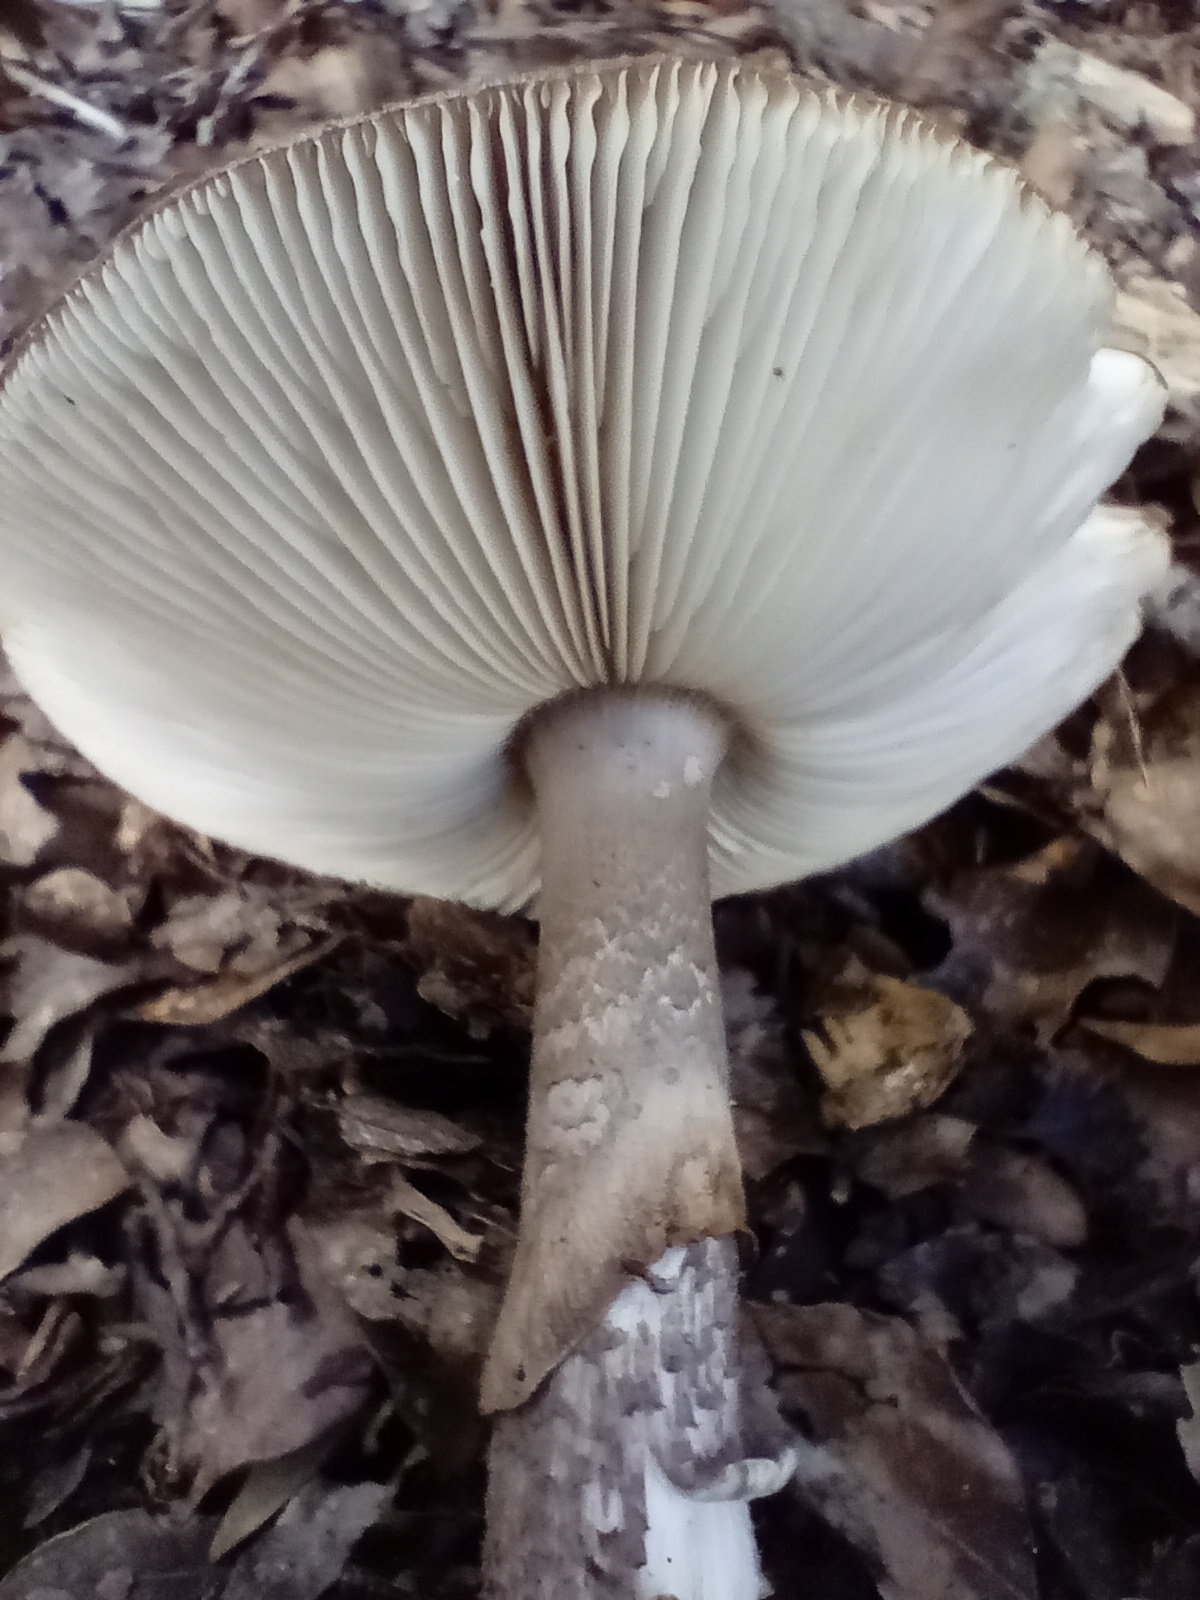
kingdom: Fungi
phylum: Basidiomycota
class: Agaricomycetes
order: Agaricales
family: Amanitaceae
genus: Amanita
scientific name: Amanita nothofagi
